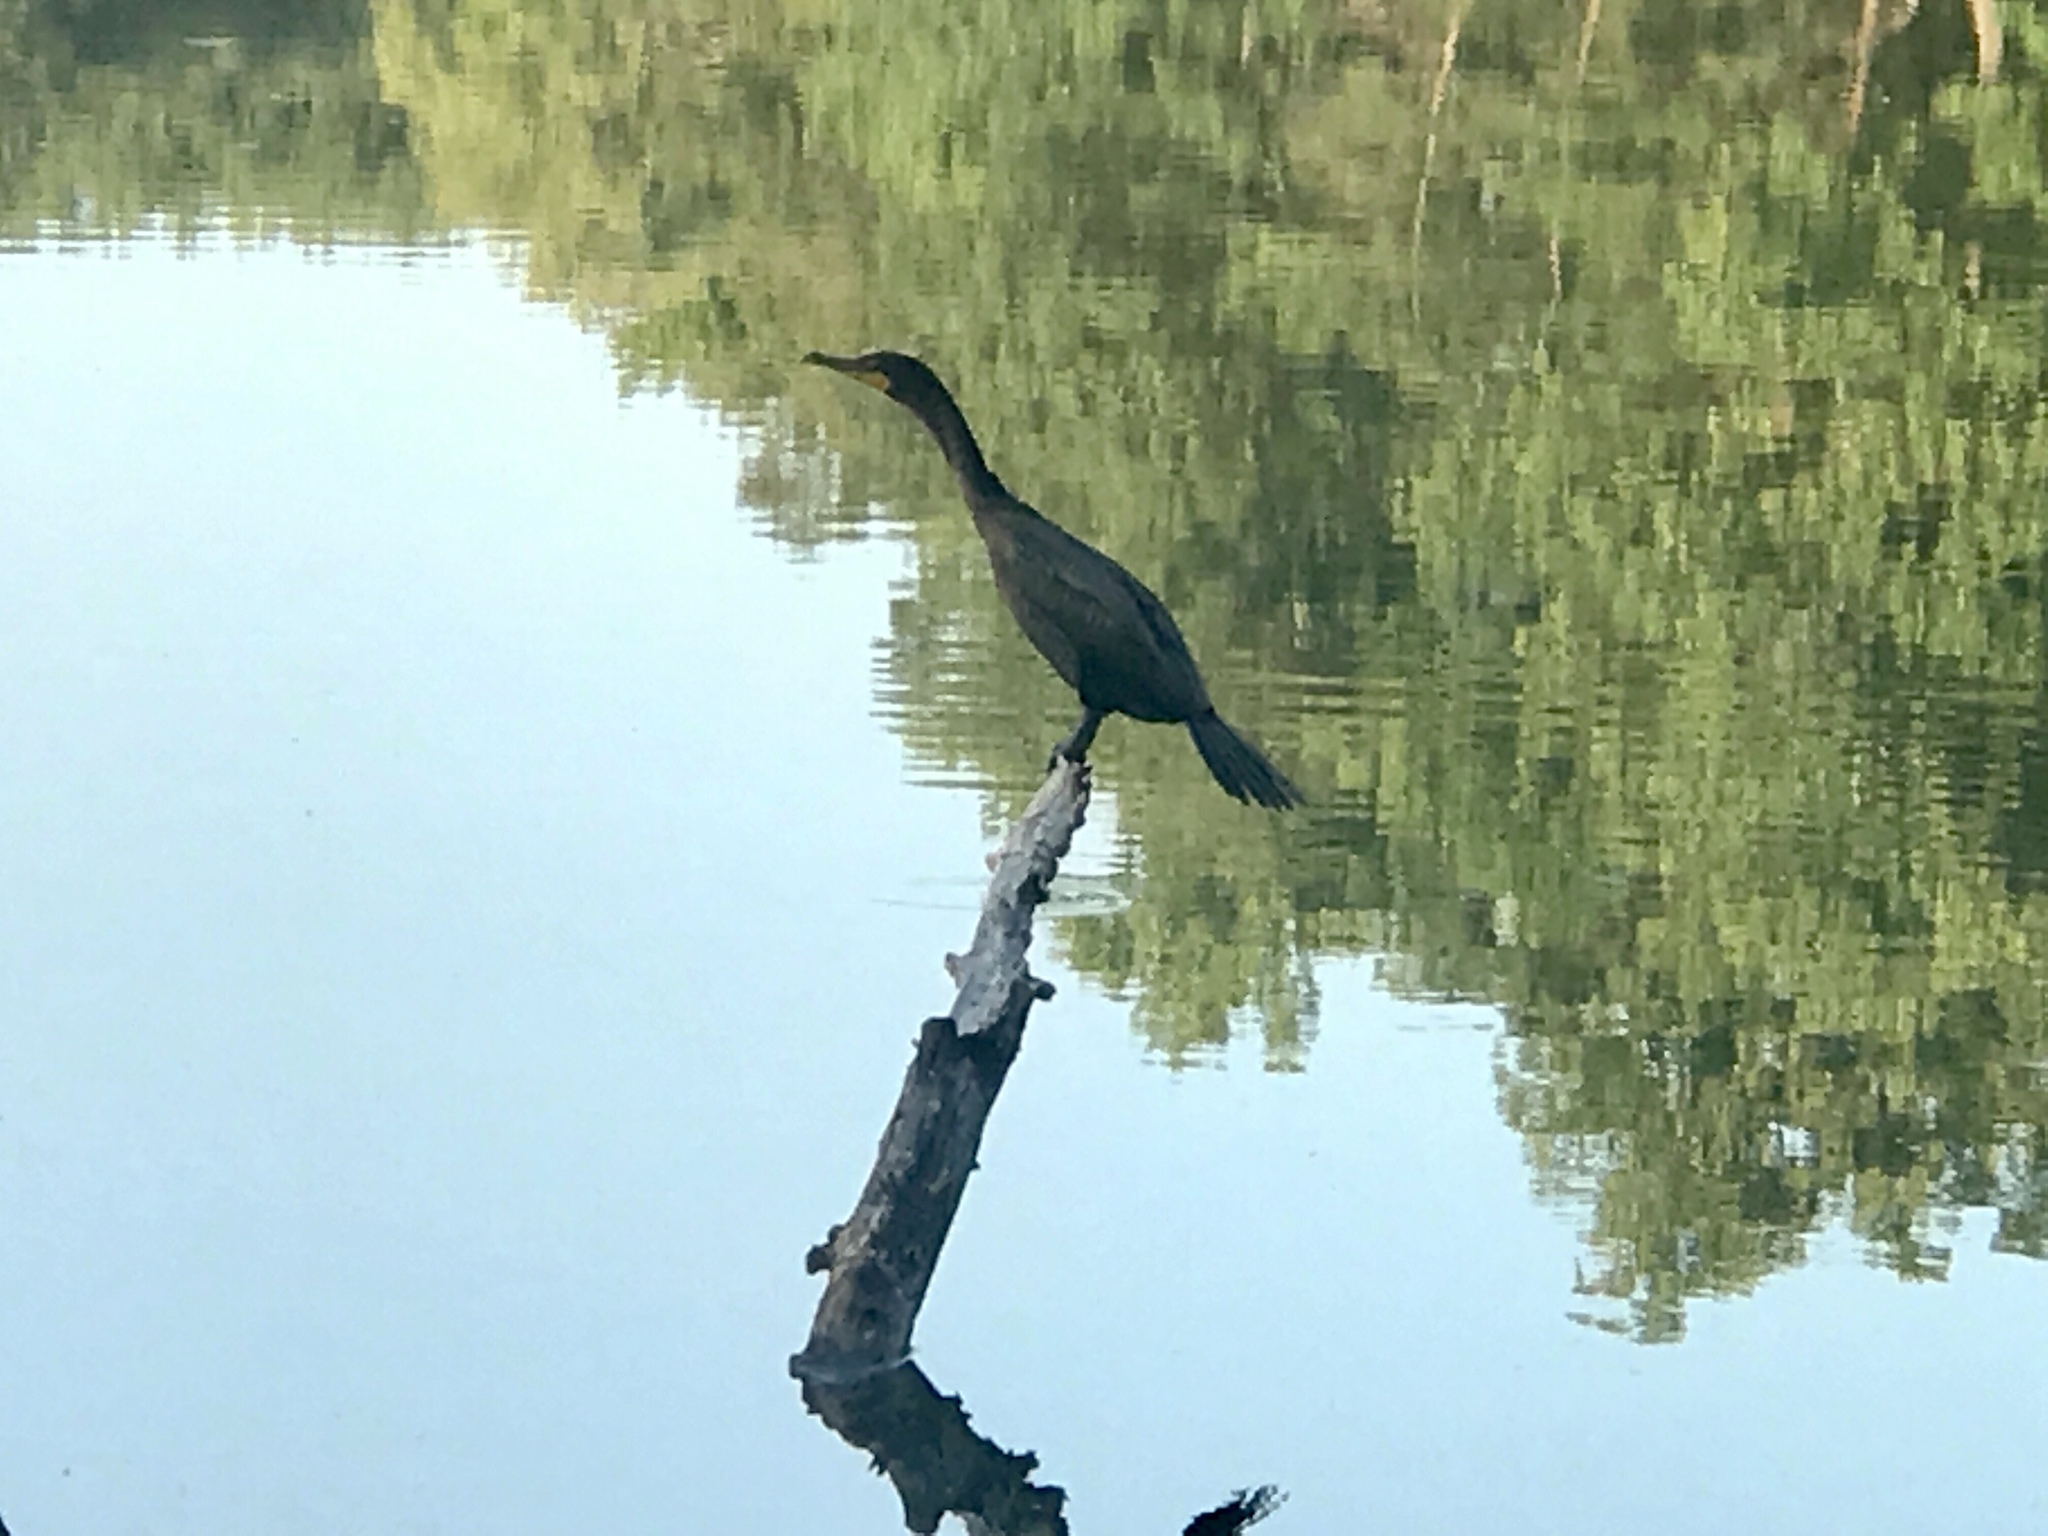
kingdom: Animalia
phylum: Chordata
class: Aves
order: Suliformes
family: Phalacrocoracidae
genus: Phalacrocorax
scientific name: Phalacrocorax auritus
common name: Double-crested cormorant
